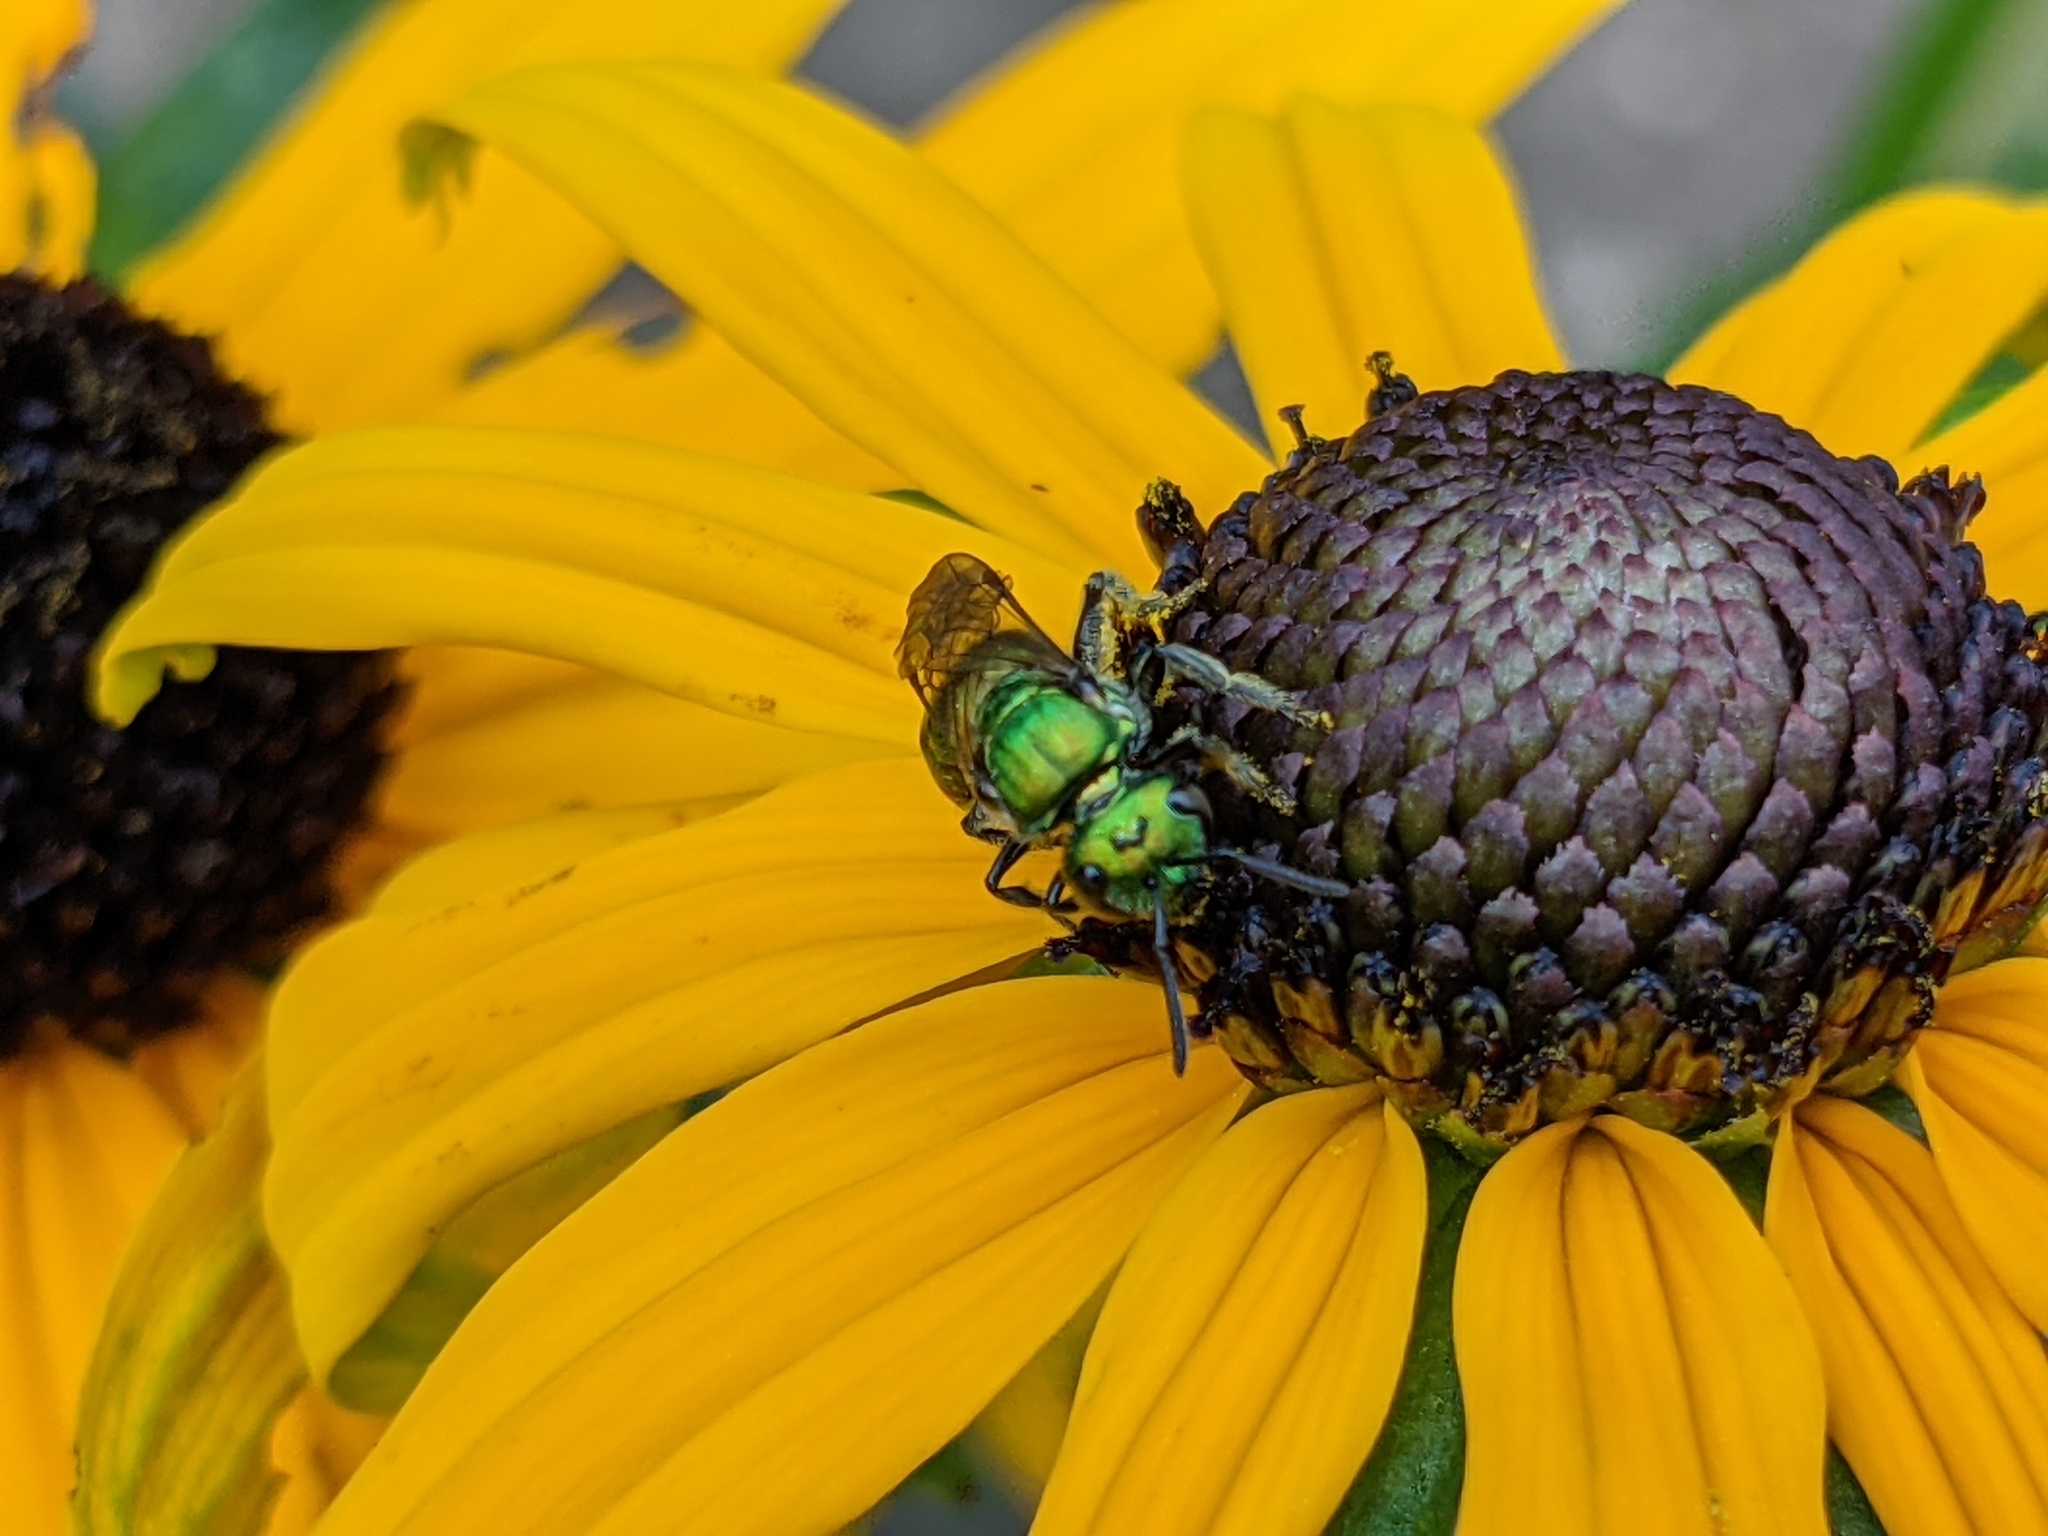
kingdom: Animalia
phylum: Arthropoda
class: Insecta
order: Hymenoptera
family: Halictidae
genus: Augochlora
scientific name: Augochlora pura
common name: Pure green sweat bee
